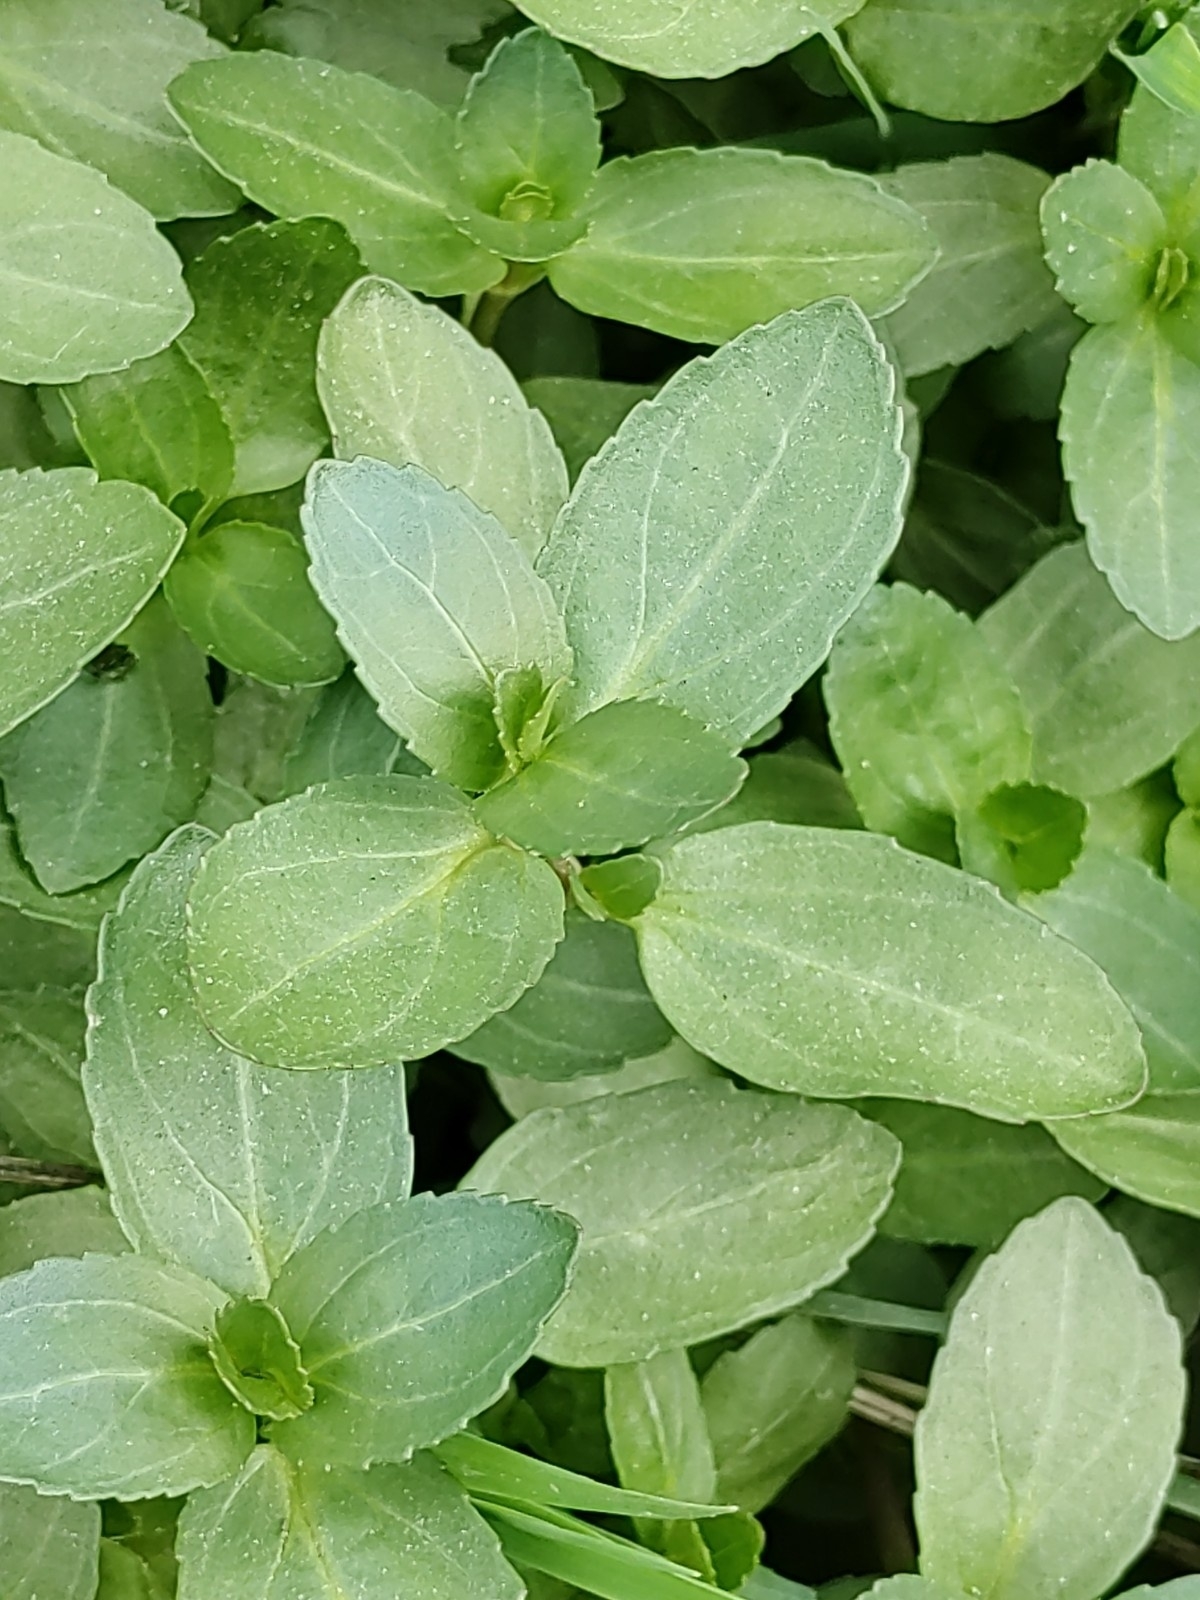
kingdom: Plantae
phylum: Tracheophyta
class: Magnoliopsida
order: Lamiales
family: Plantaginaceae
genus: Veronica
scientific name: Veronica beccabunga
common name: Brooklime
